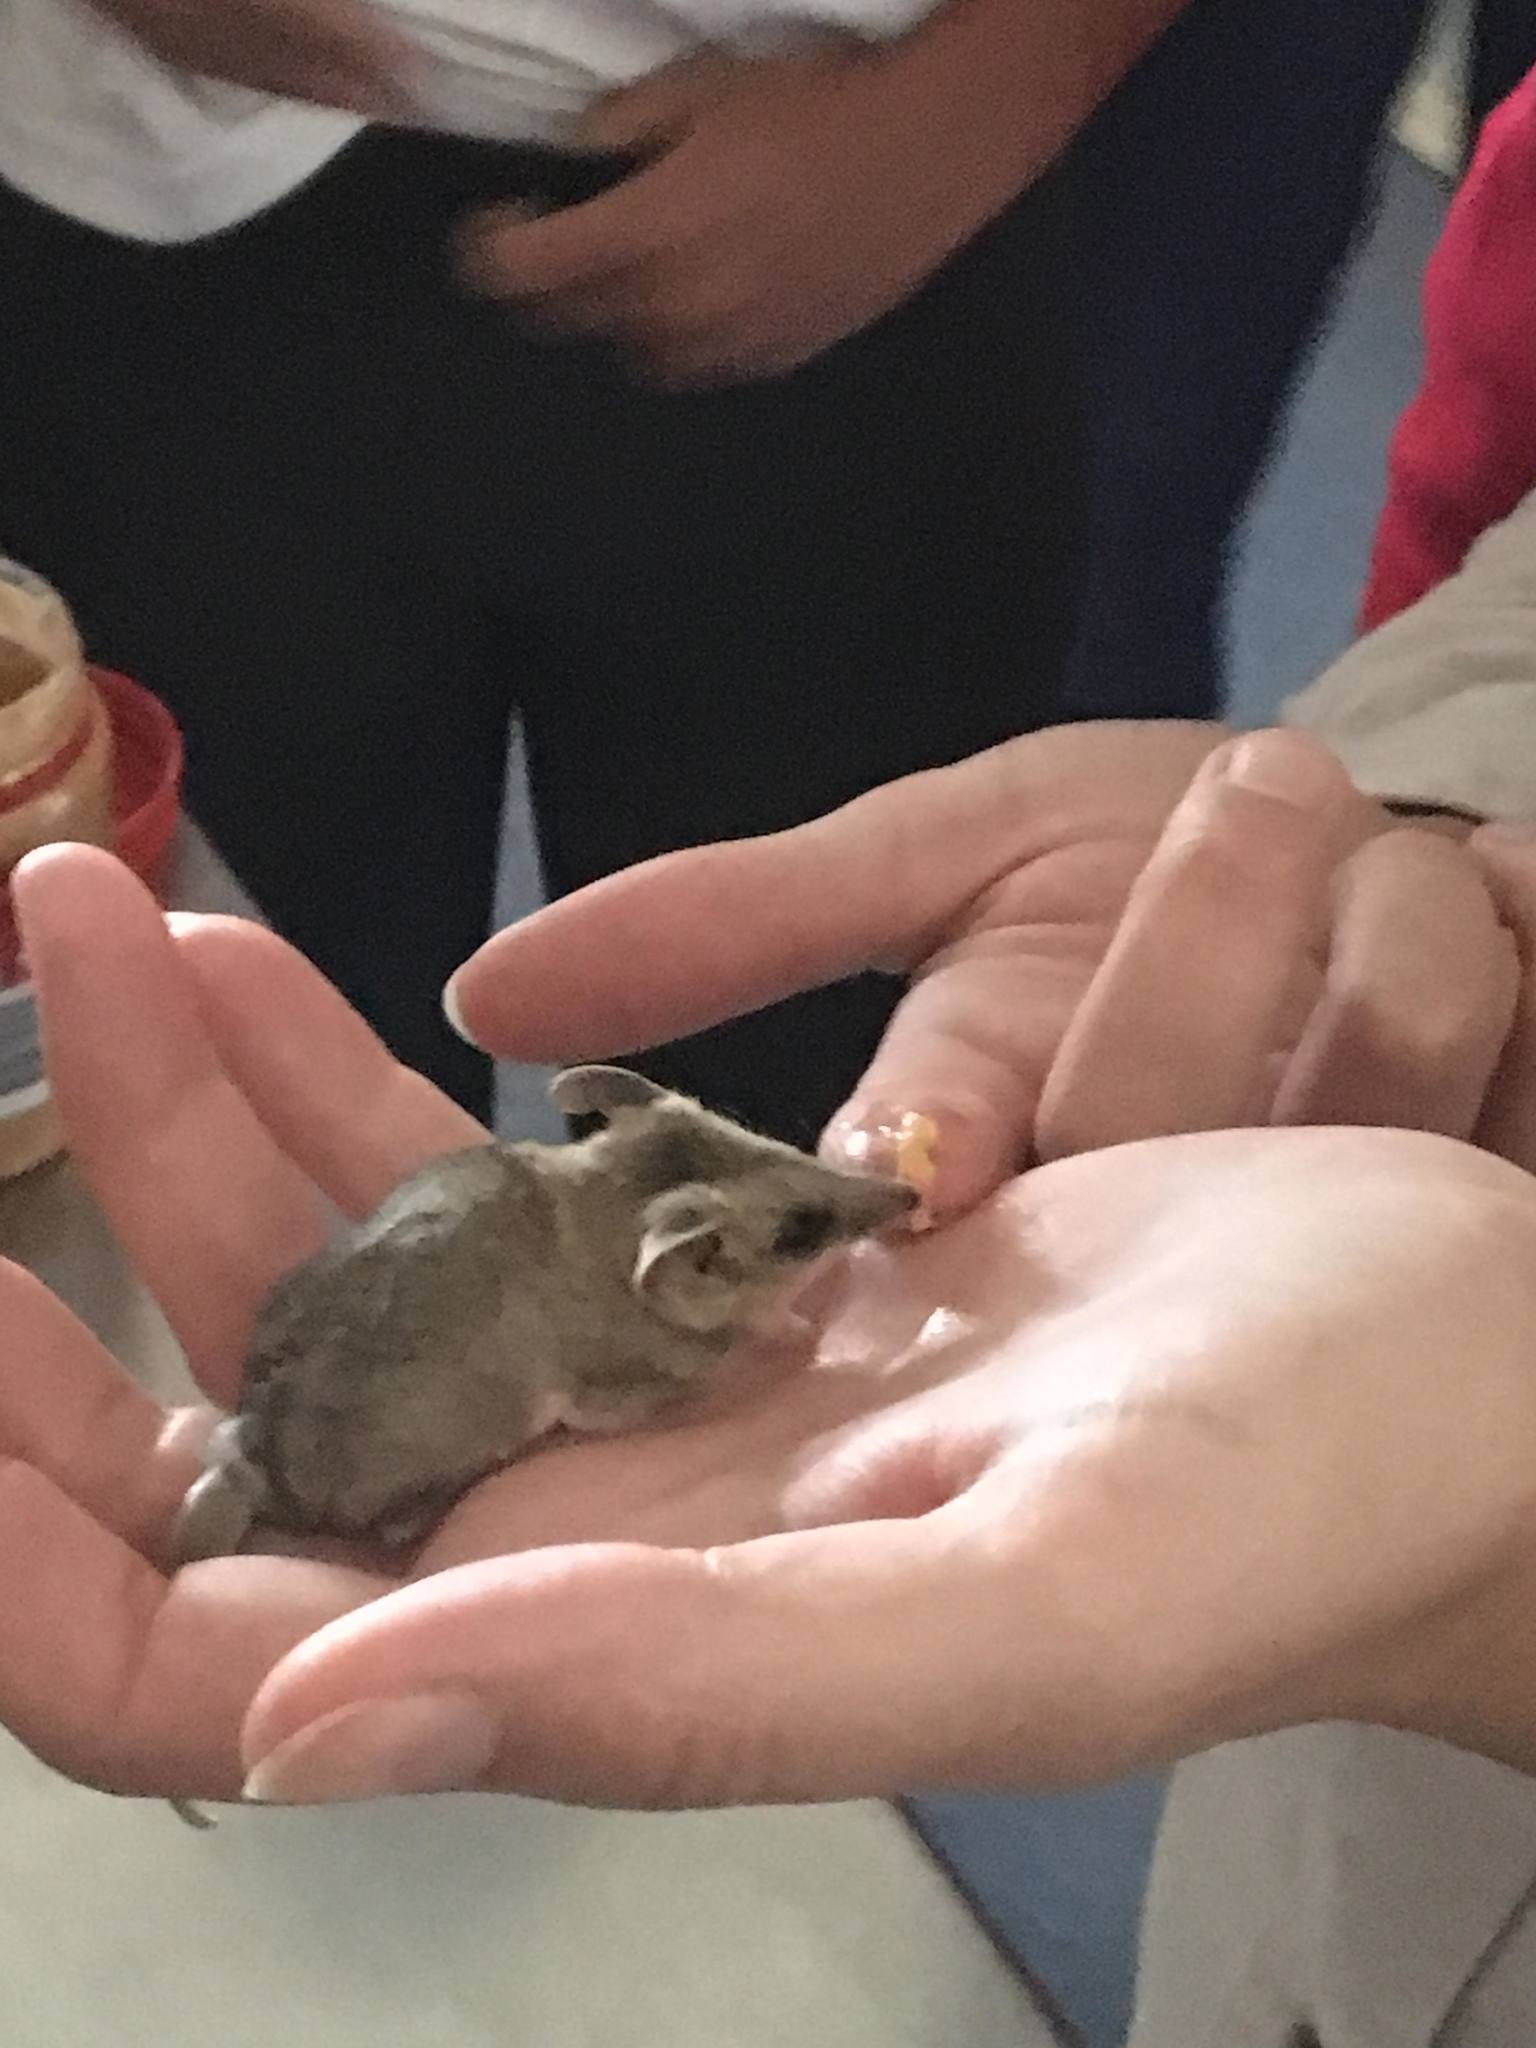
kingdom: Animalia
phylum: Chordata
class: Mammalia
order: Dasyuromorphia
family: Dasyuridae
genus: Sminthopsis
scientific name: Sminthopsis crassicaudata
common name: Fat-tailed dunnart
